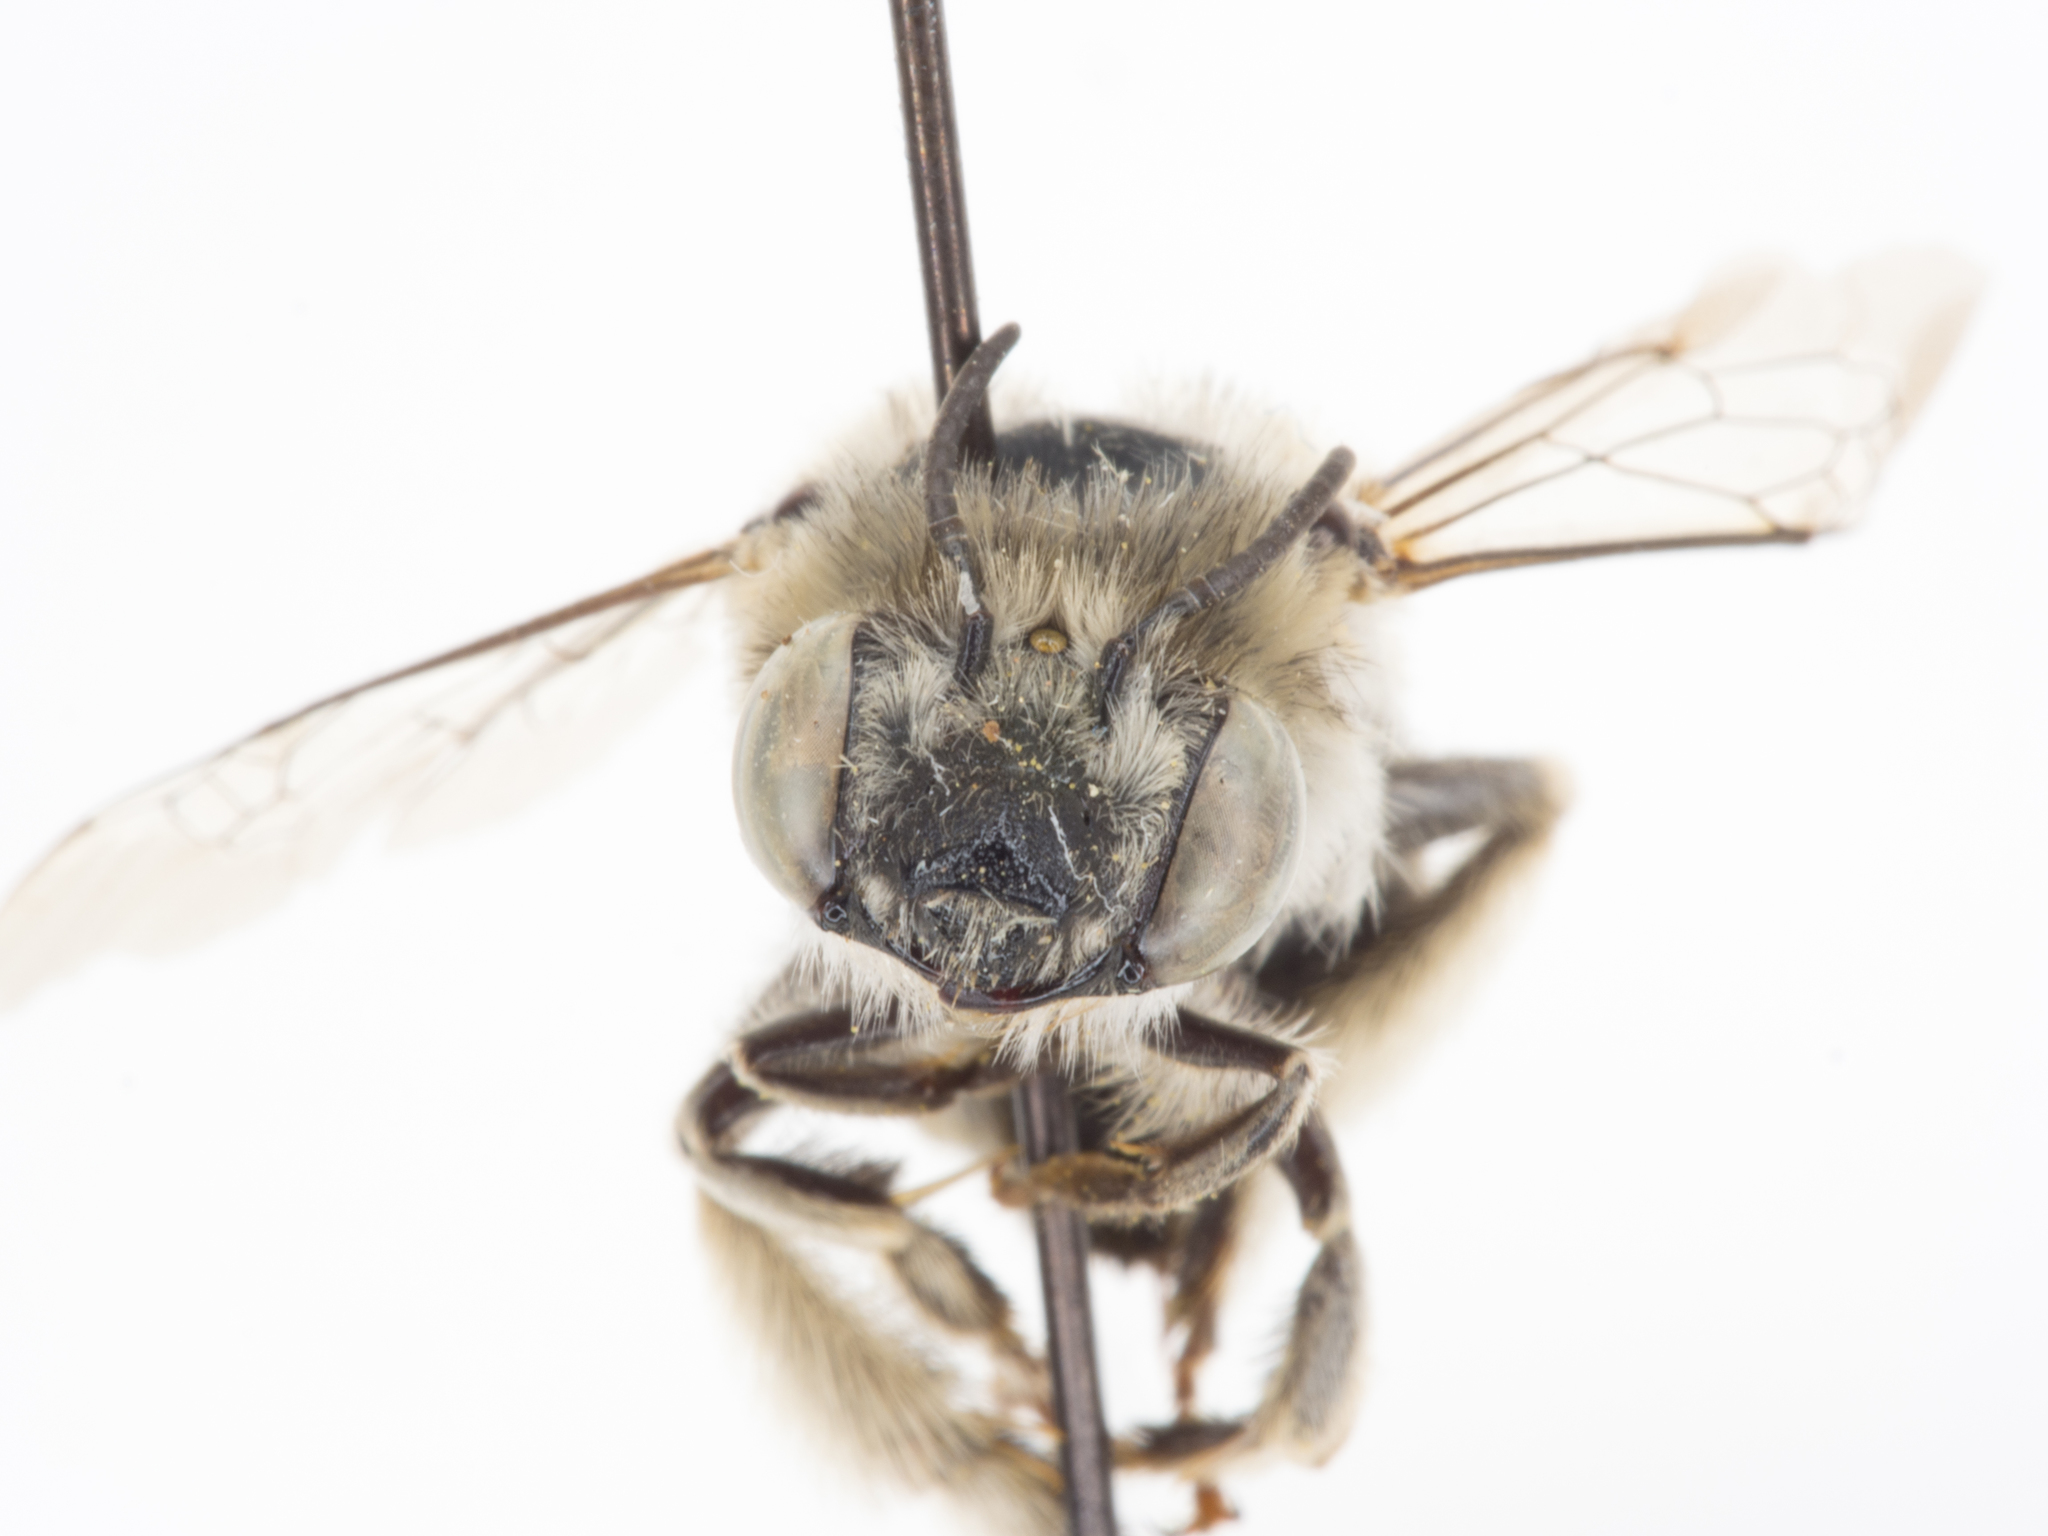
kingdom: Animalia
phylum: Arthropoda
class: Insecta
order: Hymenoptera
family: Apidae
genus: Anthophora
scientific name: Anthophora urbana
